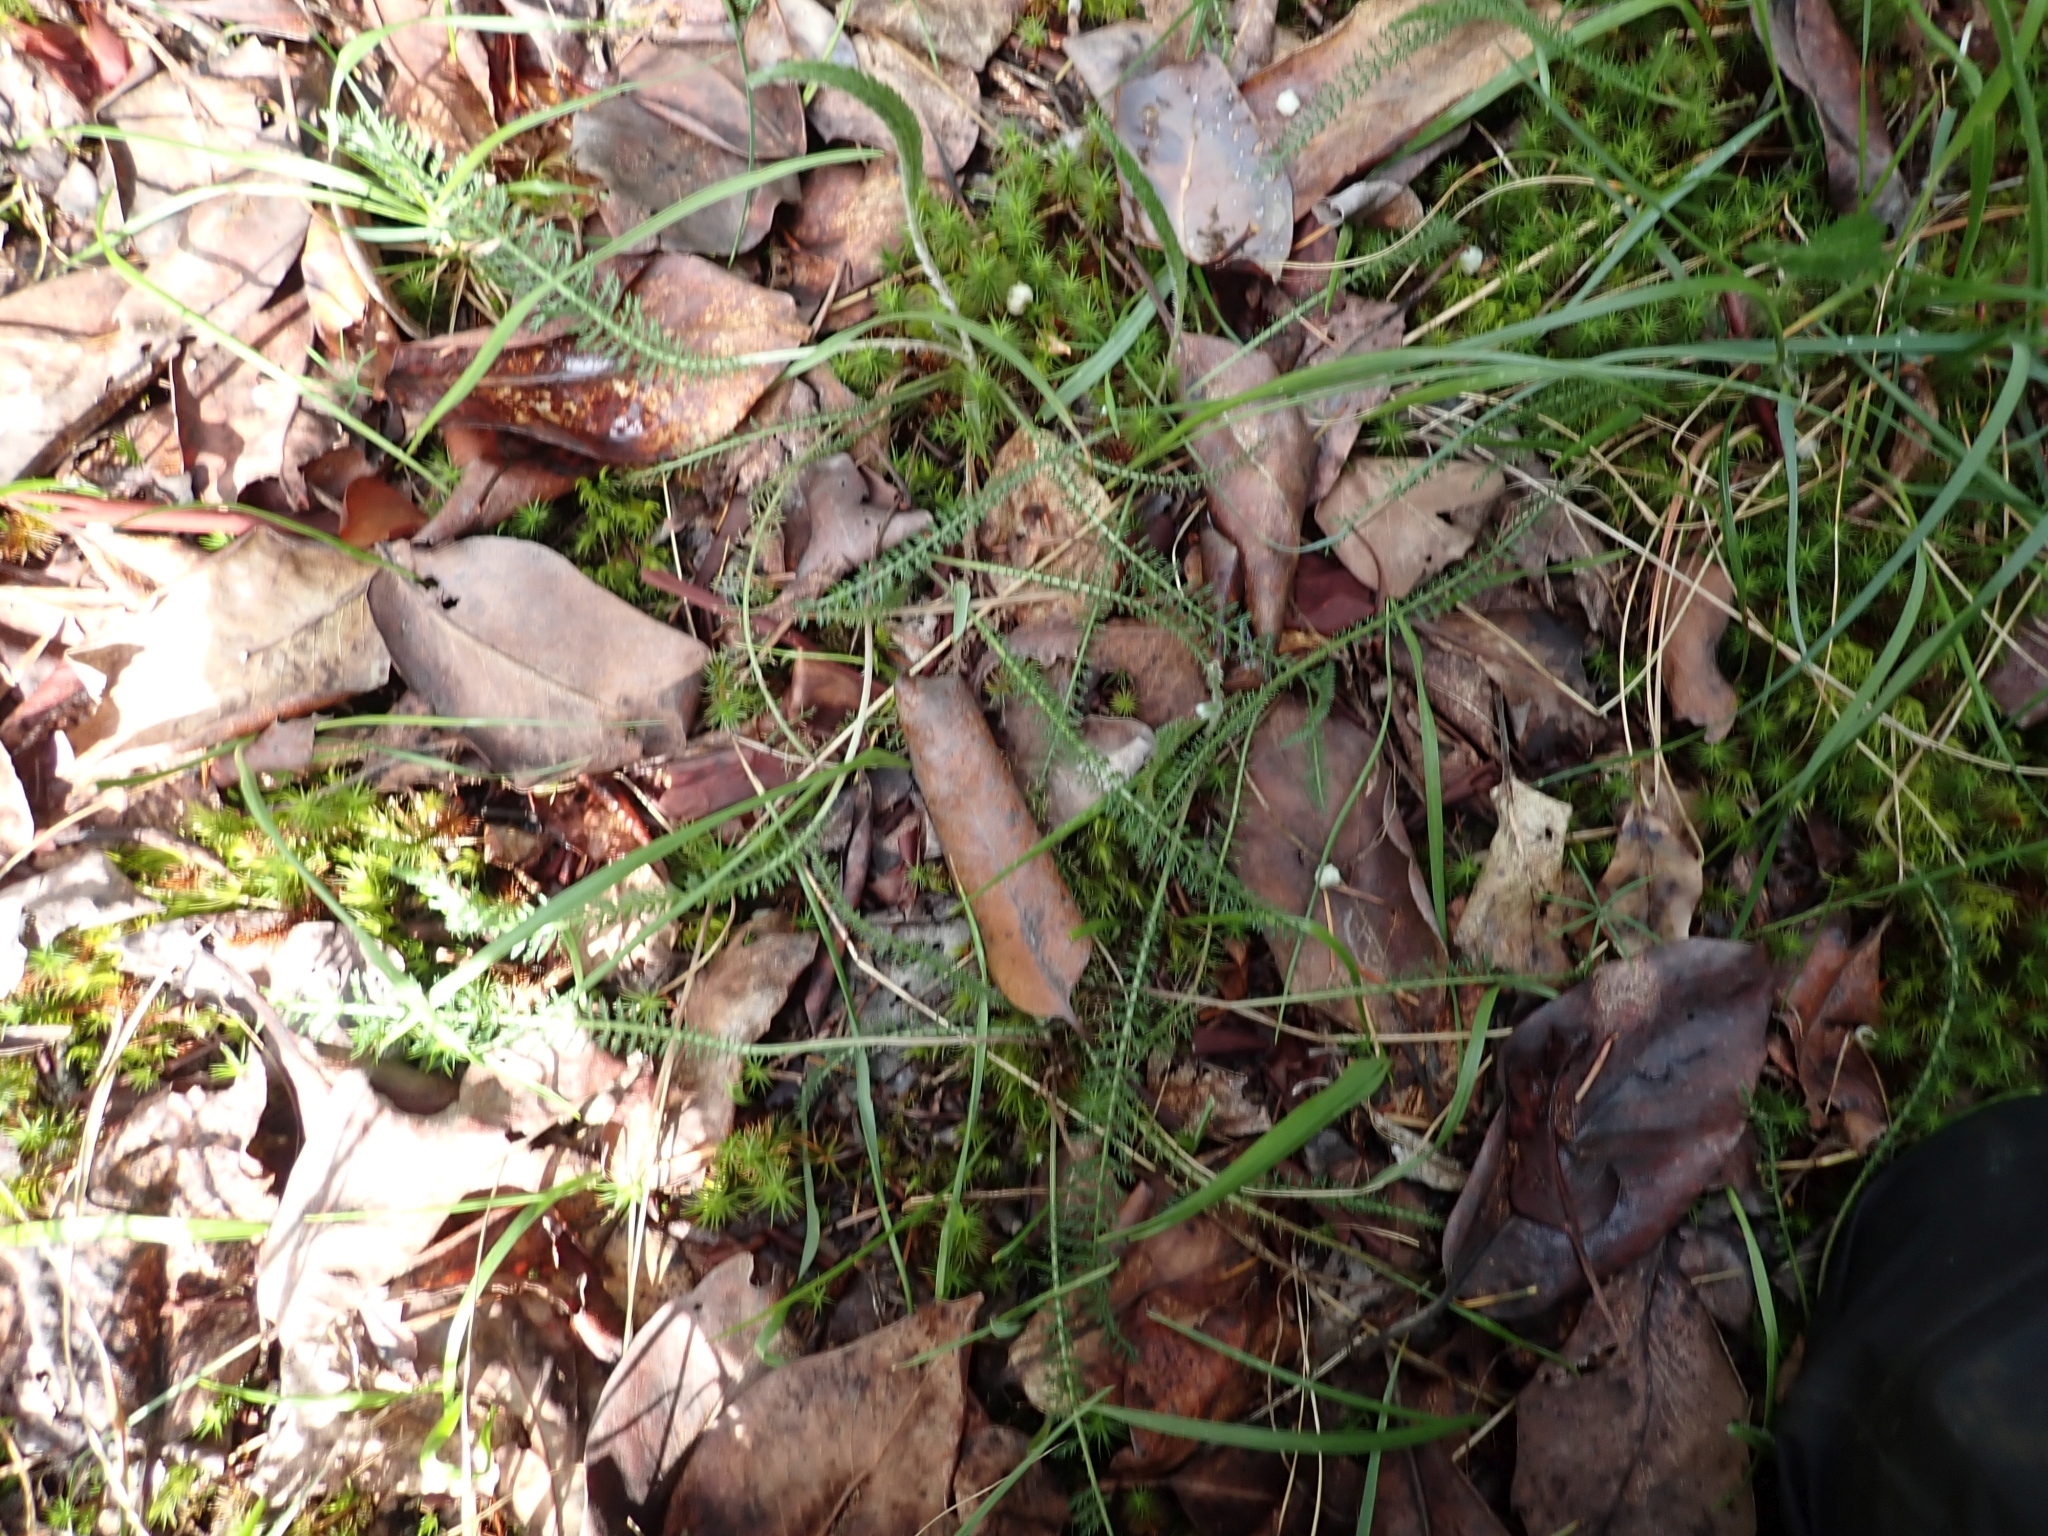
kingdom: Plantae
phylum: Tracheophyta
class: Magnoliopsida
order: Asterales
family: Asteraceae
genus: Achillea
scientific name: Achillea millefolium
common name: Yarrow
